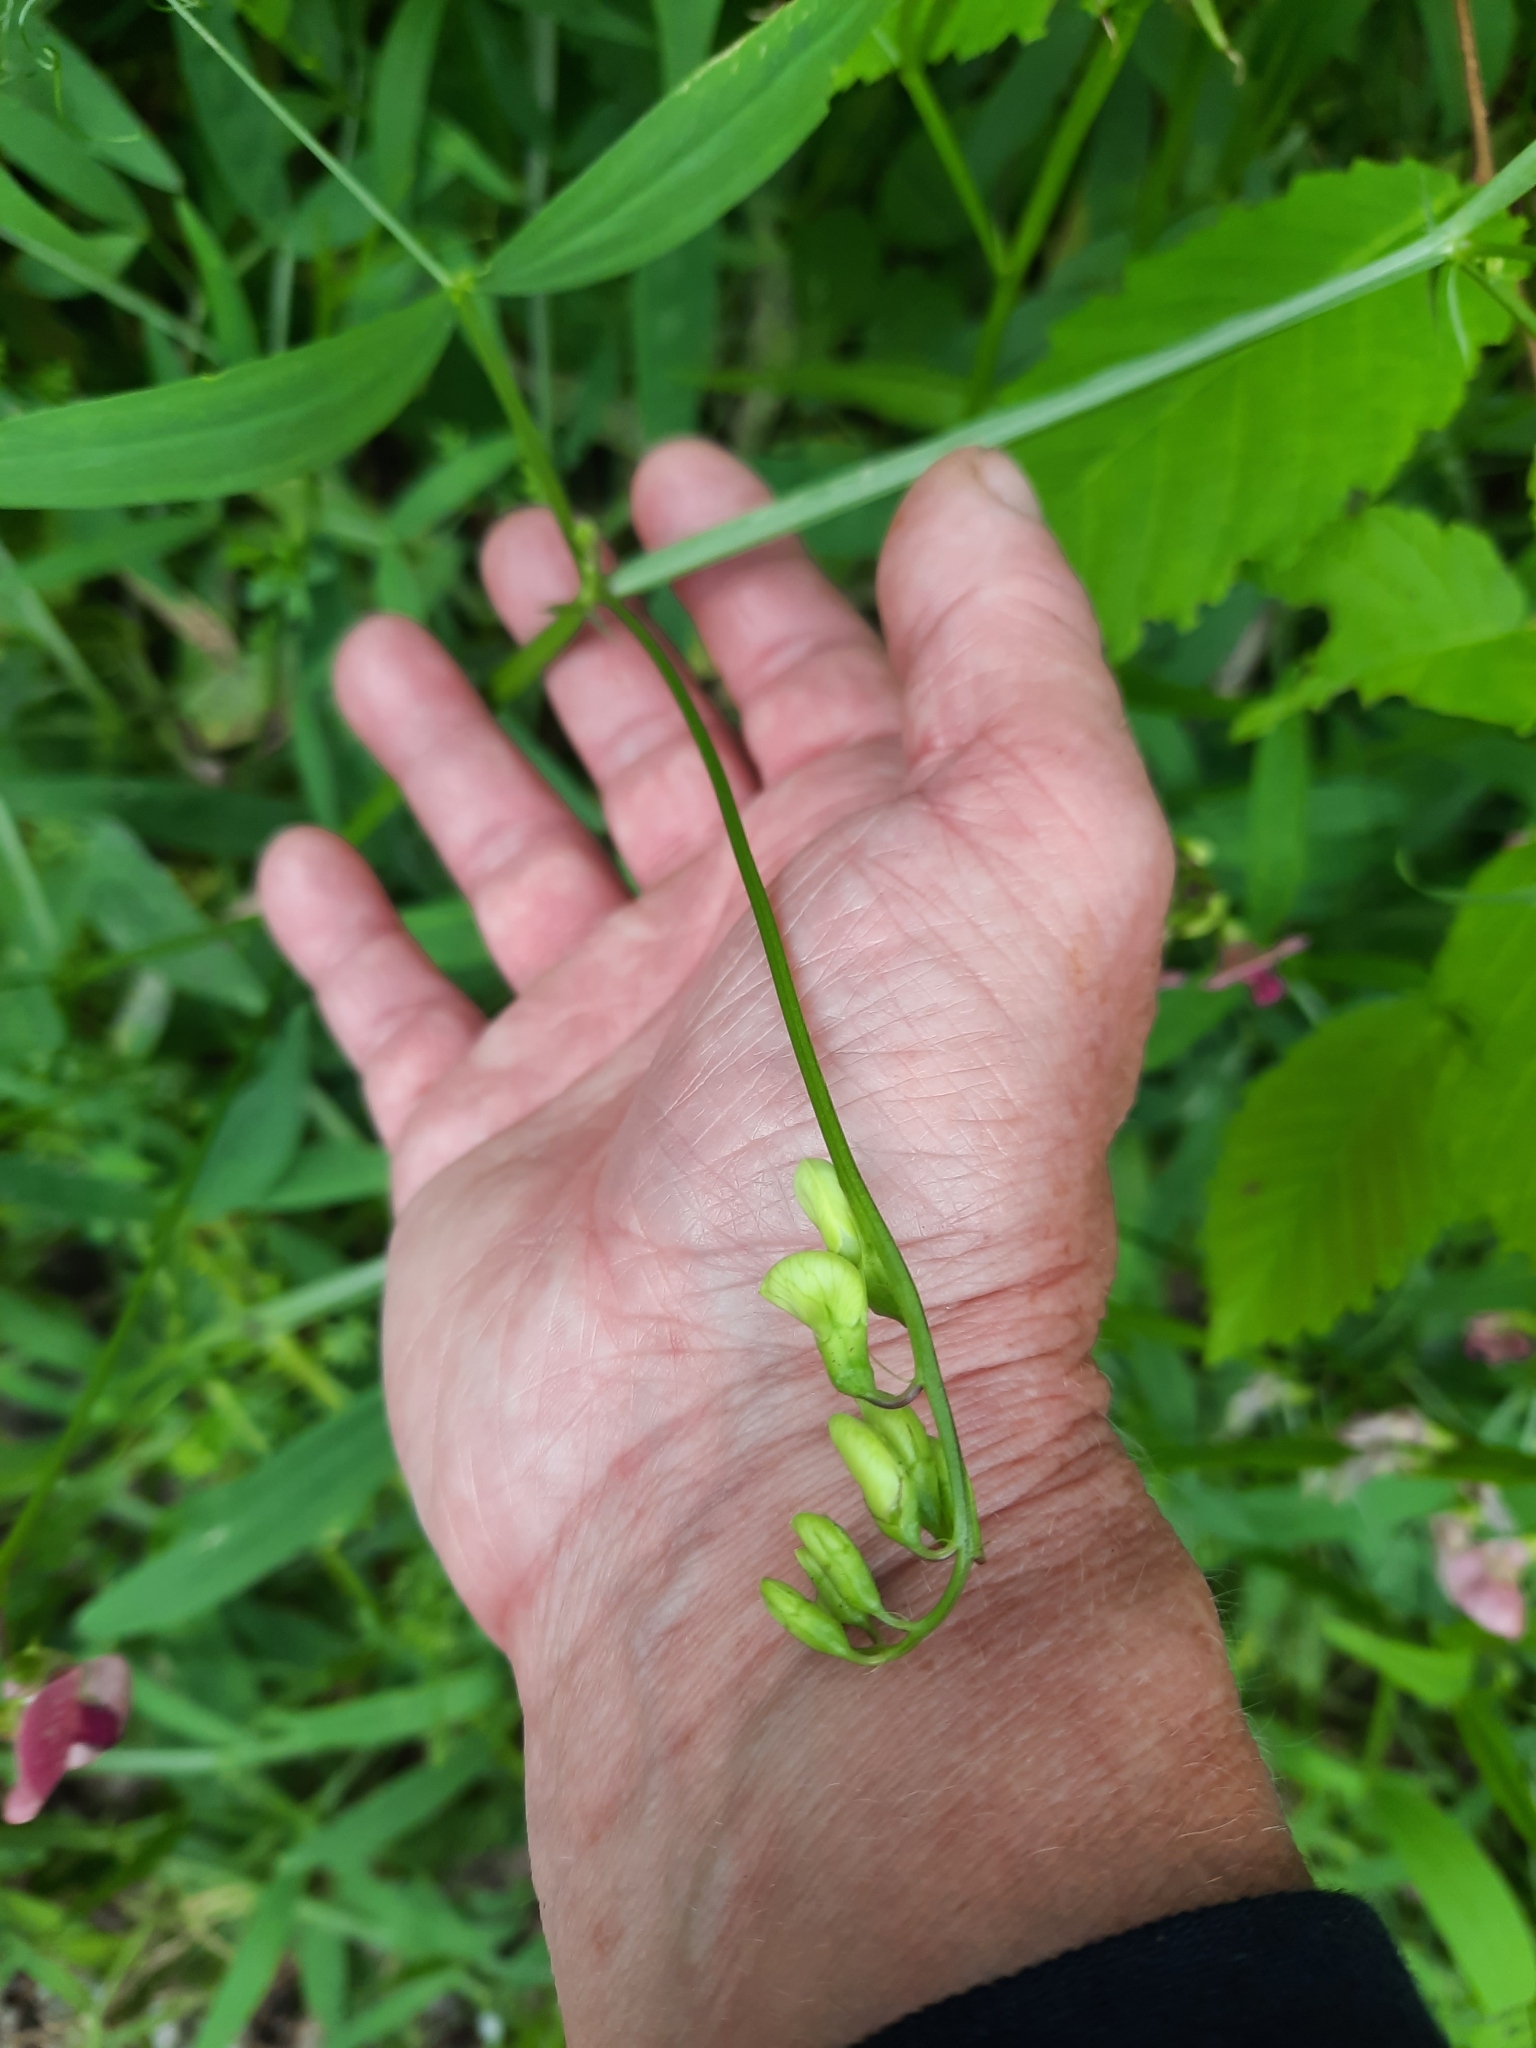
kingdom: Plantae
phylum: Tracheophyta
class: Magnoliopsida
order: Fabales
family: Fabaceae
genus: Lathyrus
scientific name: Lathyrus sylvestris
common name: Flat pea
